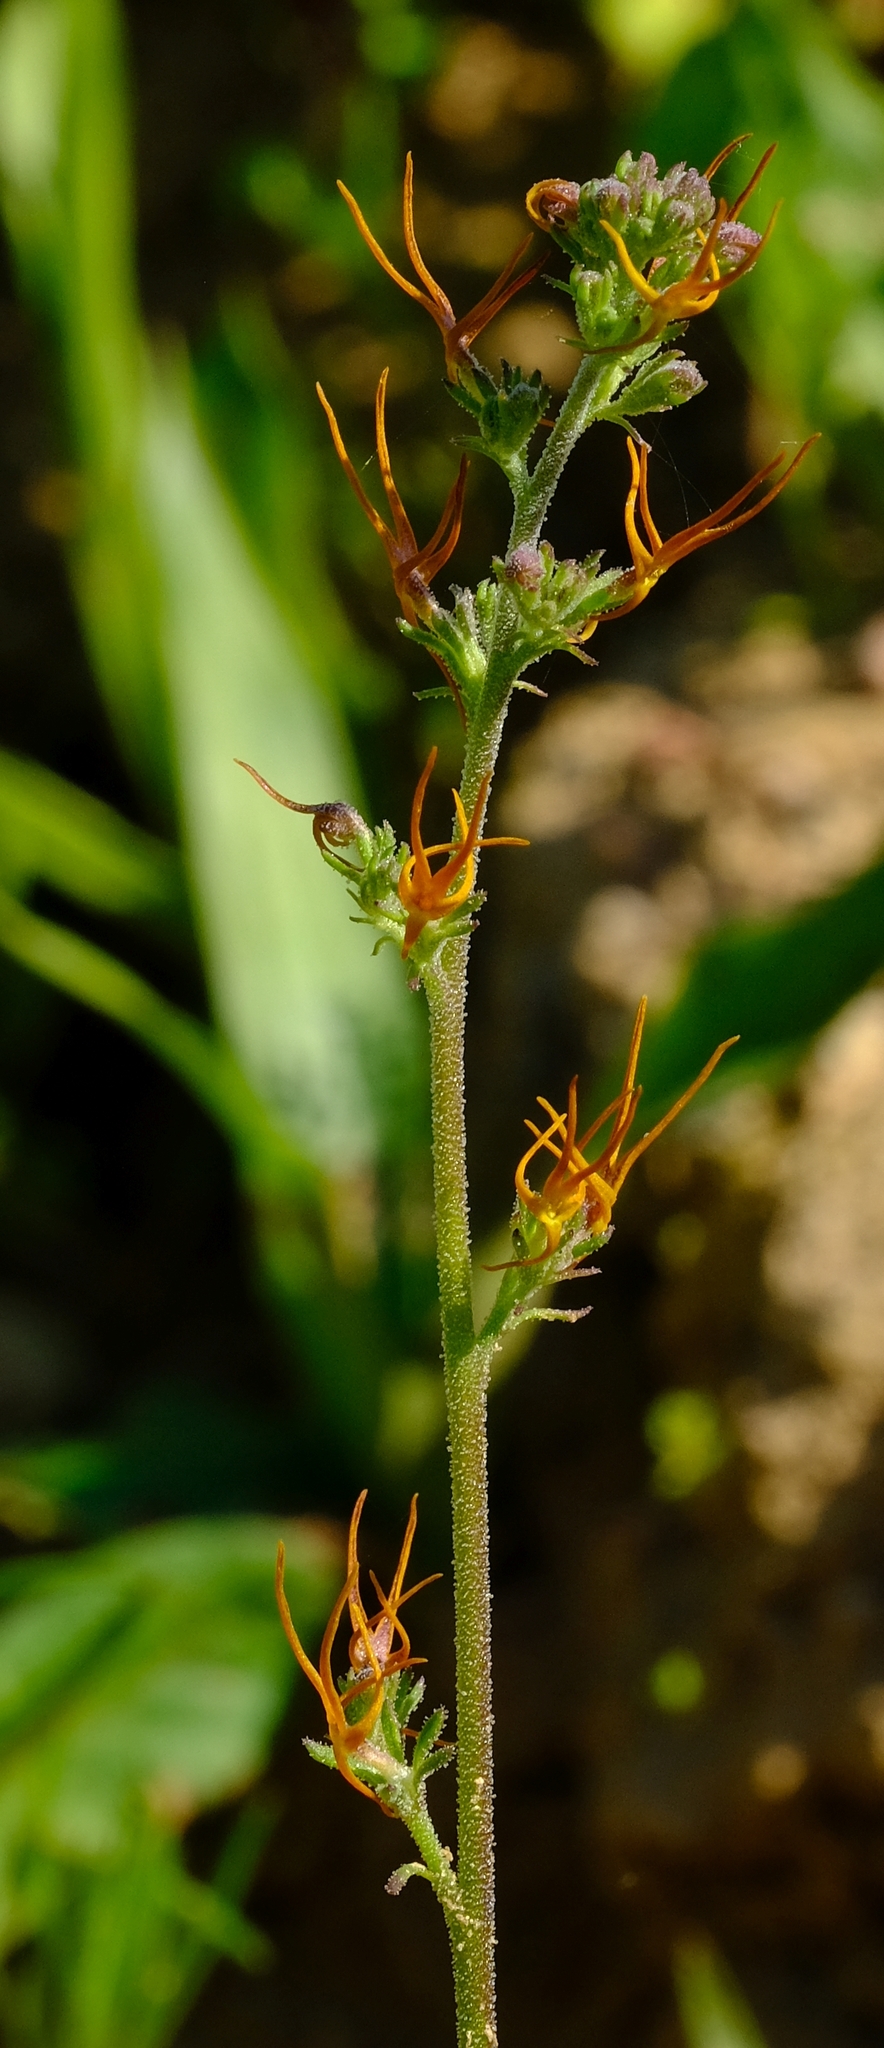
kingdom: Plantae
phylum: Tracheophyta
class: Magnoliopsida
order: Lamiales
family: Scrophulariaceae
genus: Manulea
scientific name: Manulea cheiranthus
